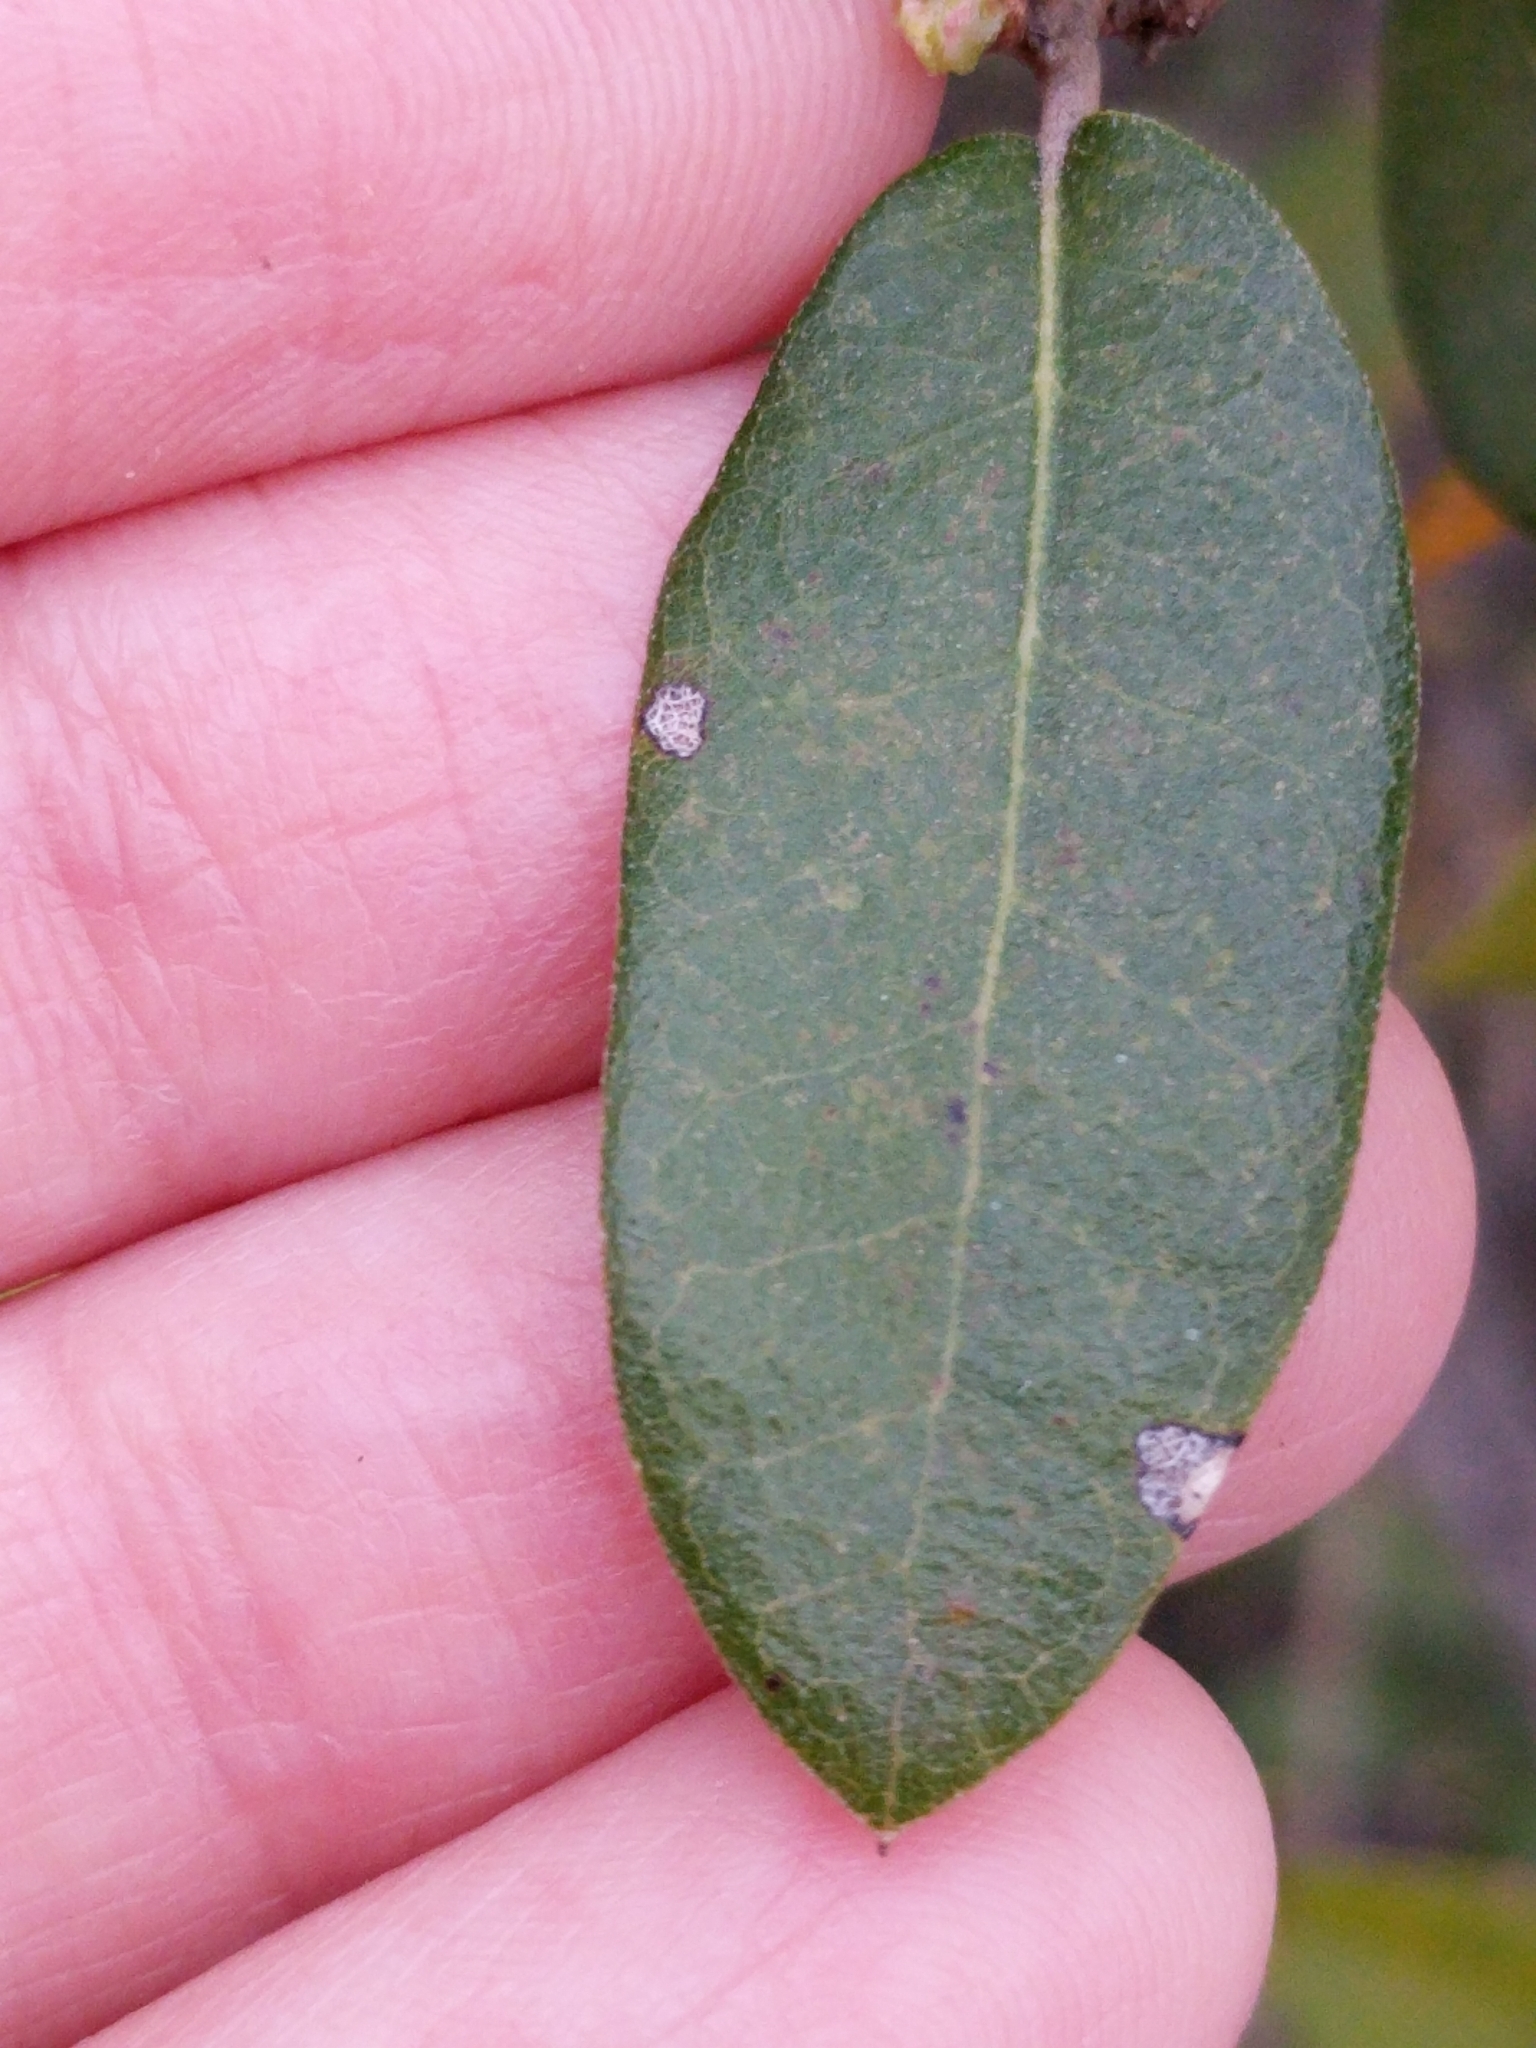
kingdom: Plantae
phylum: Tracheophyta
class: Magnoliopsida
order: Fagales
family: Fagaceae
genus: Quercus
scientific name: Quercus fusiformis
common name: Texas live oak
